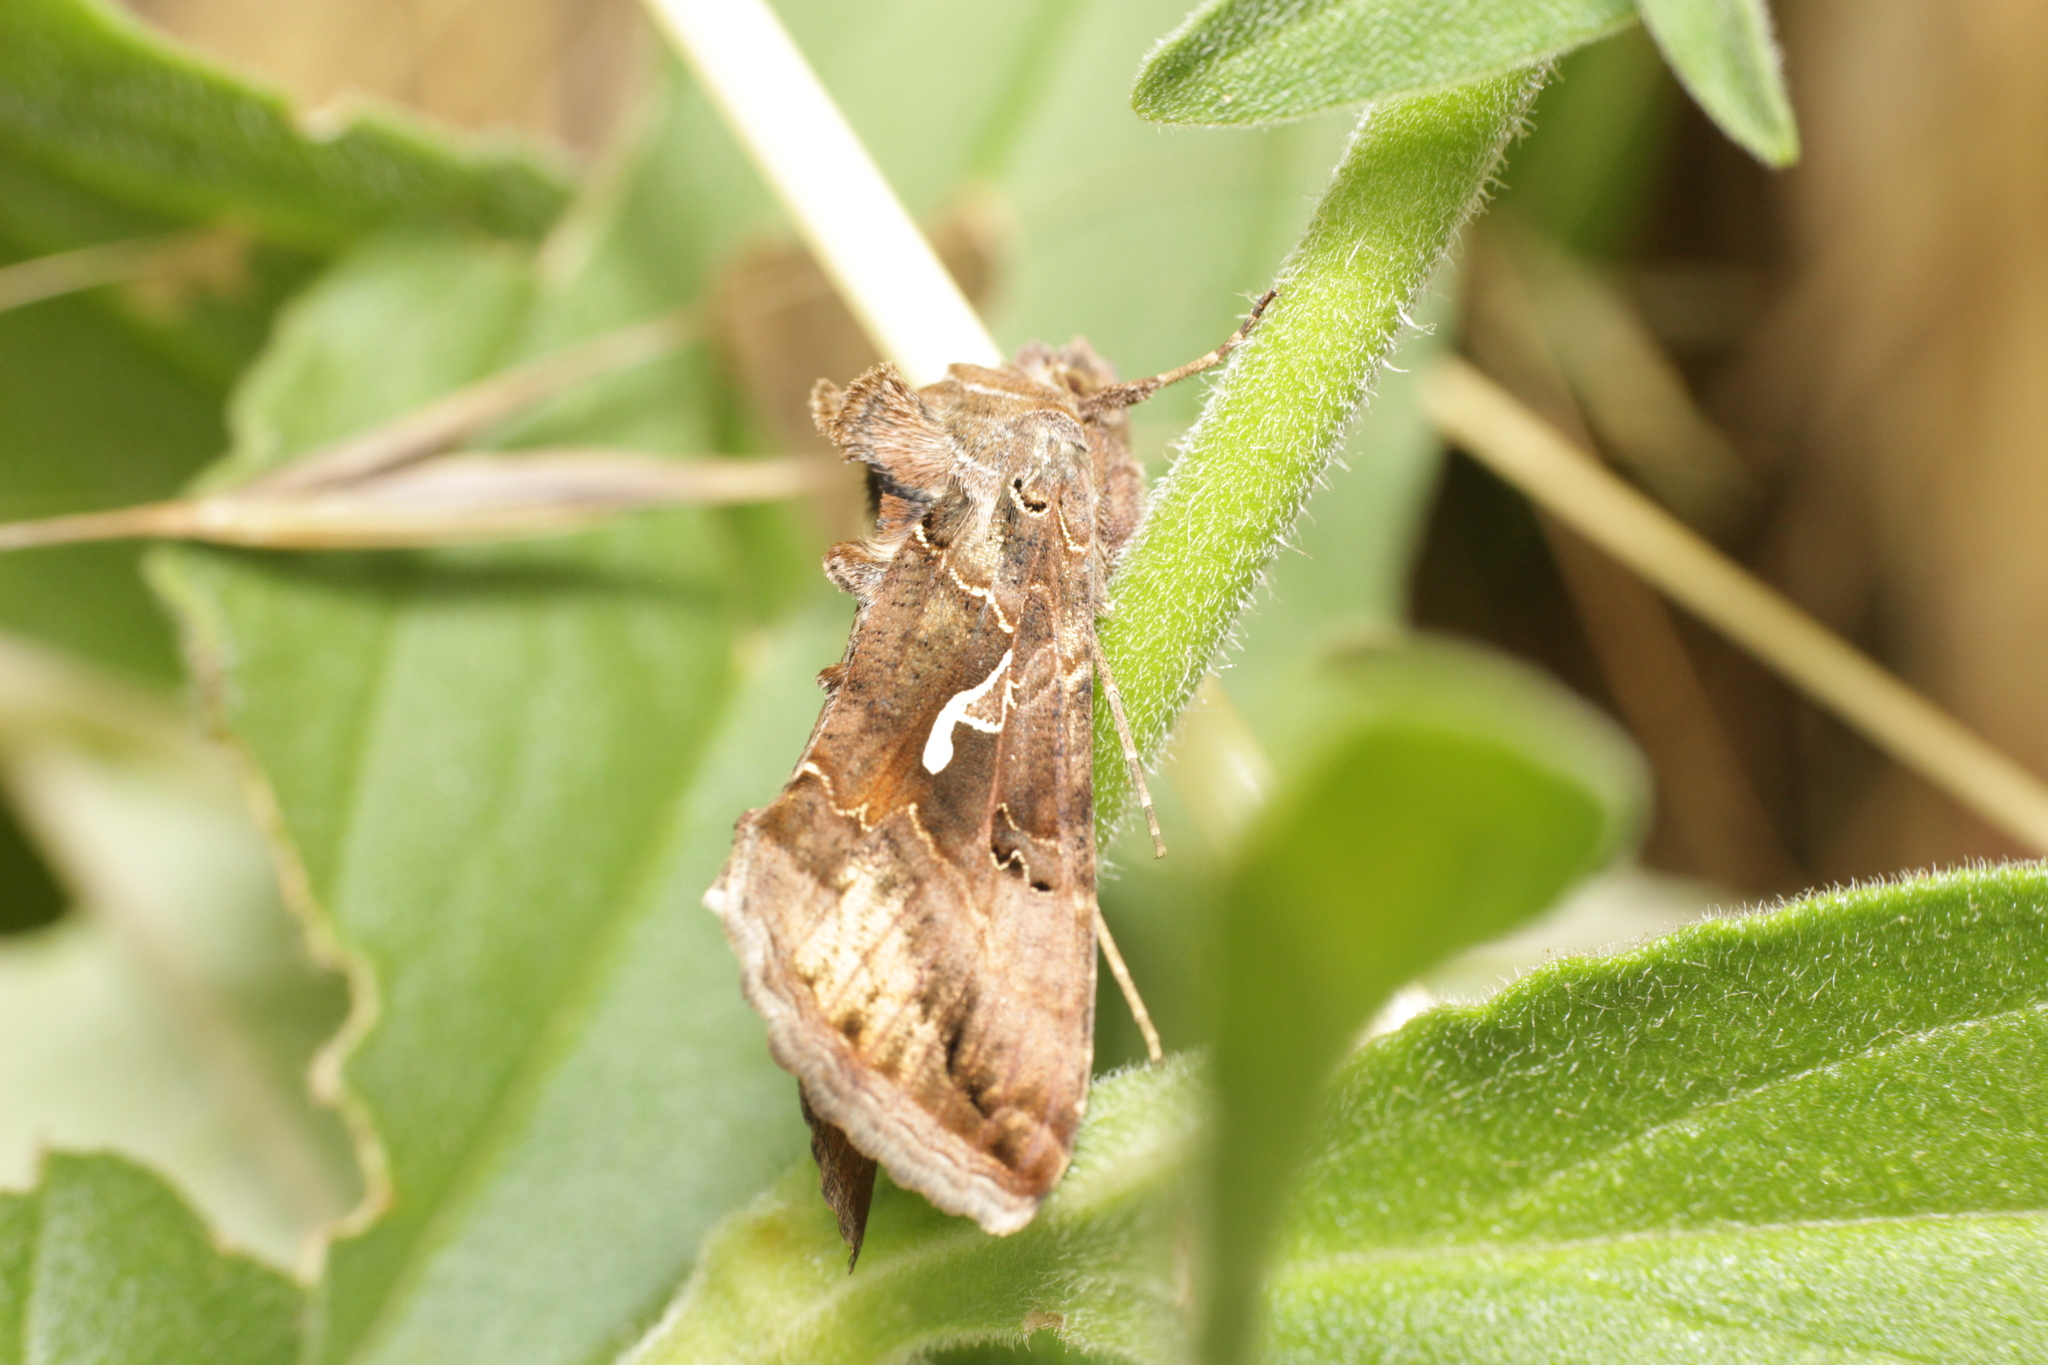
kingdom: Animalia
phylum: Arthropoda
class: Insecta
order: Lepidoptera
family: Noctuidae
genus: Autographa
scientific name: Autographa gamma
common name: Silver y
